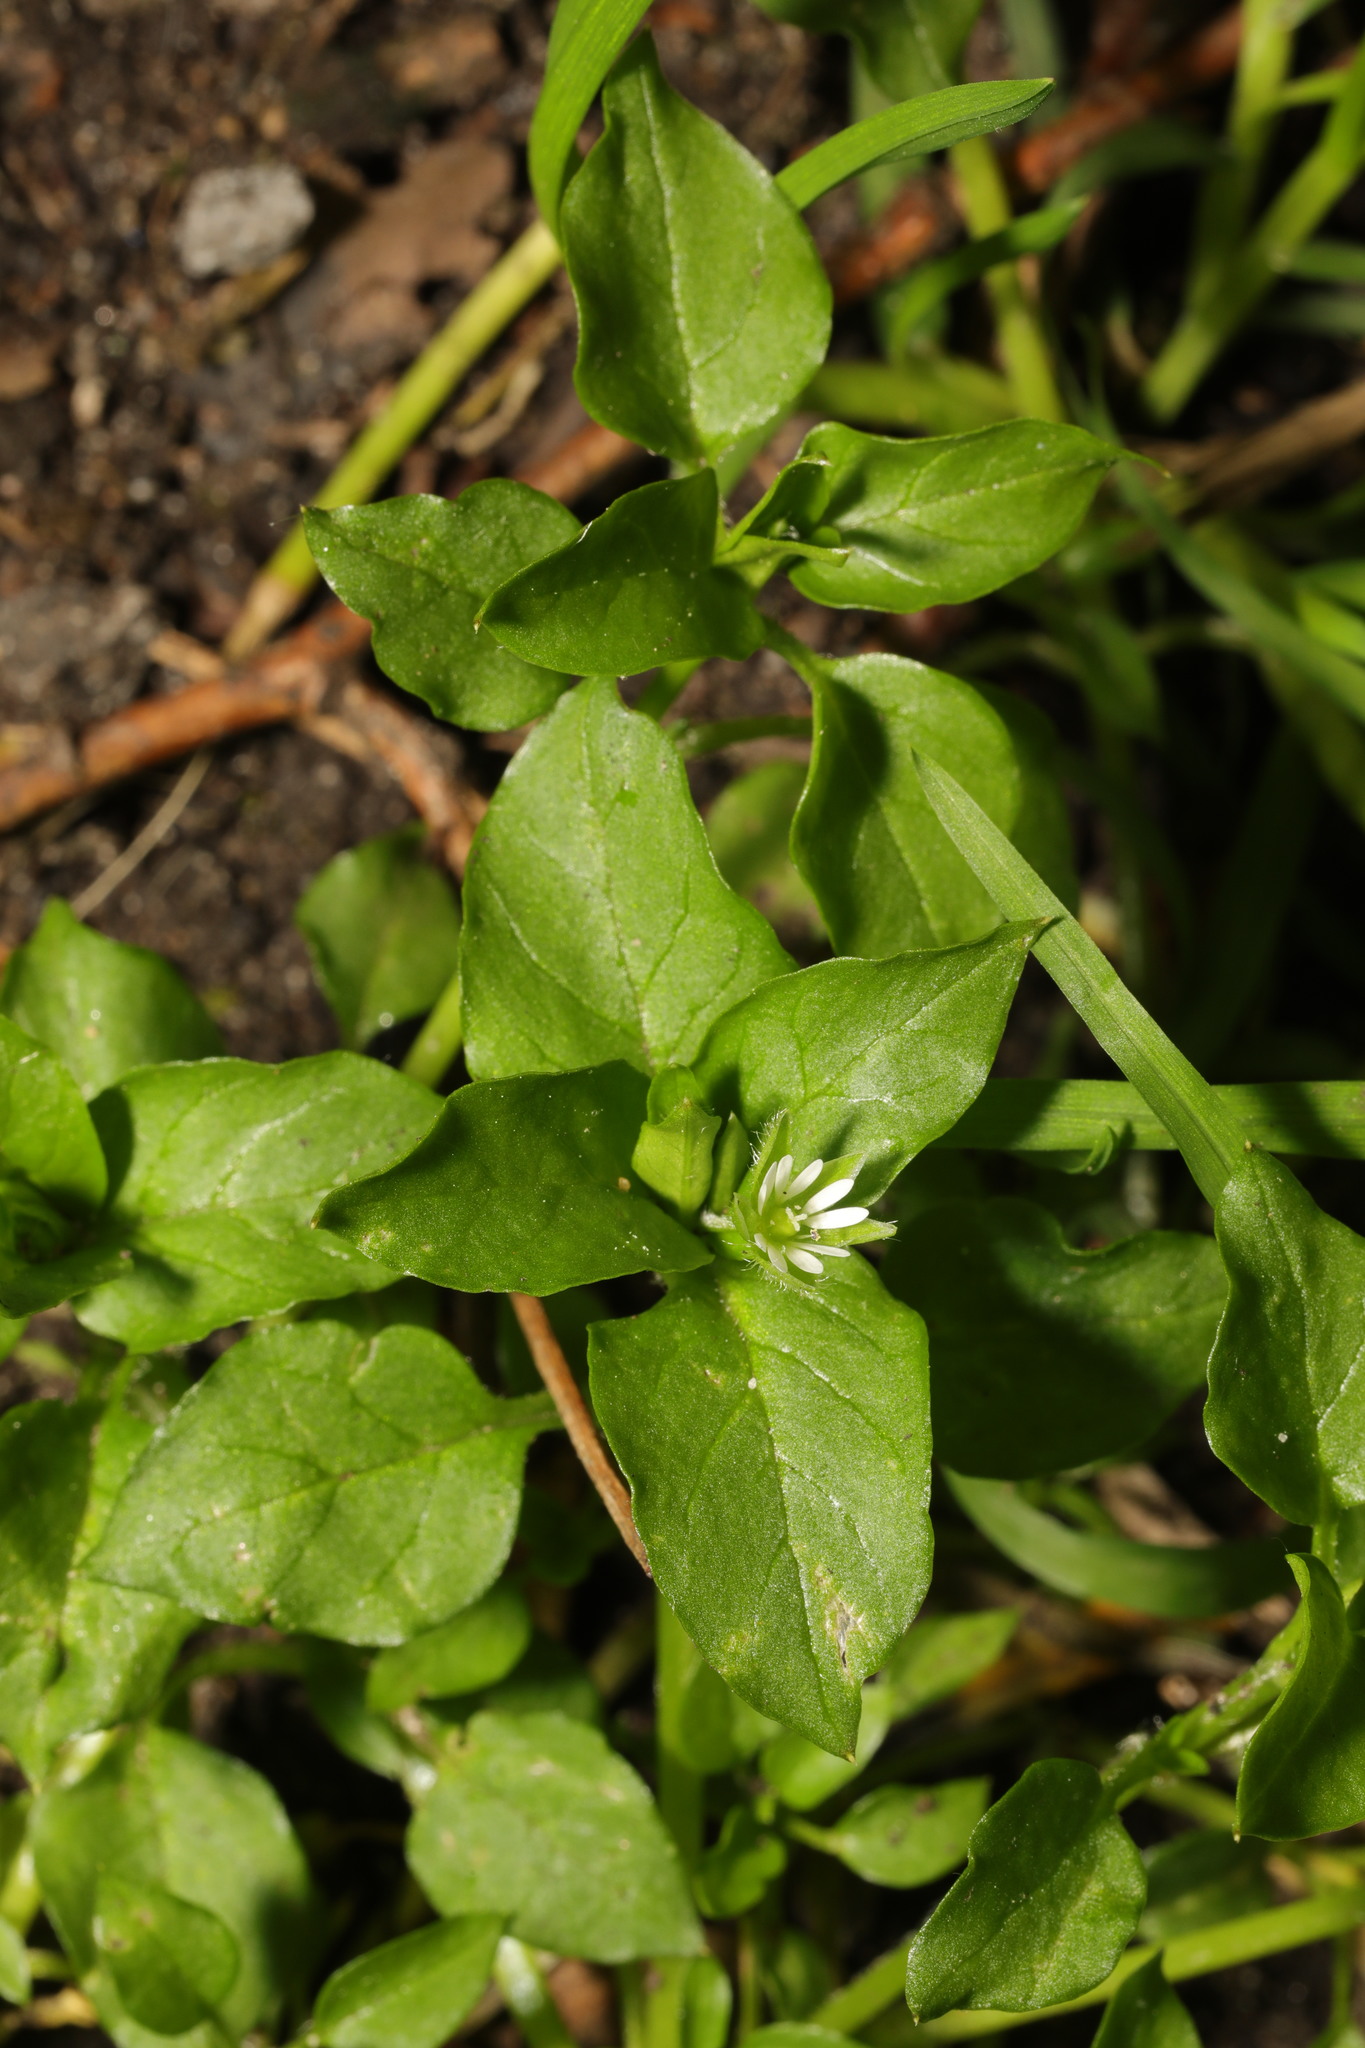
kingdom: Plantae
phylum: Tracheophyta
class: Magnoliopsida
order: Caryophyllales
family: Caryophyllaceae
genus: Stellaria
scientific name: Stellaria media
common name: Common chickweed
